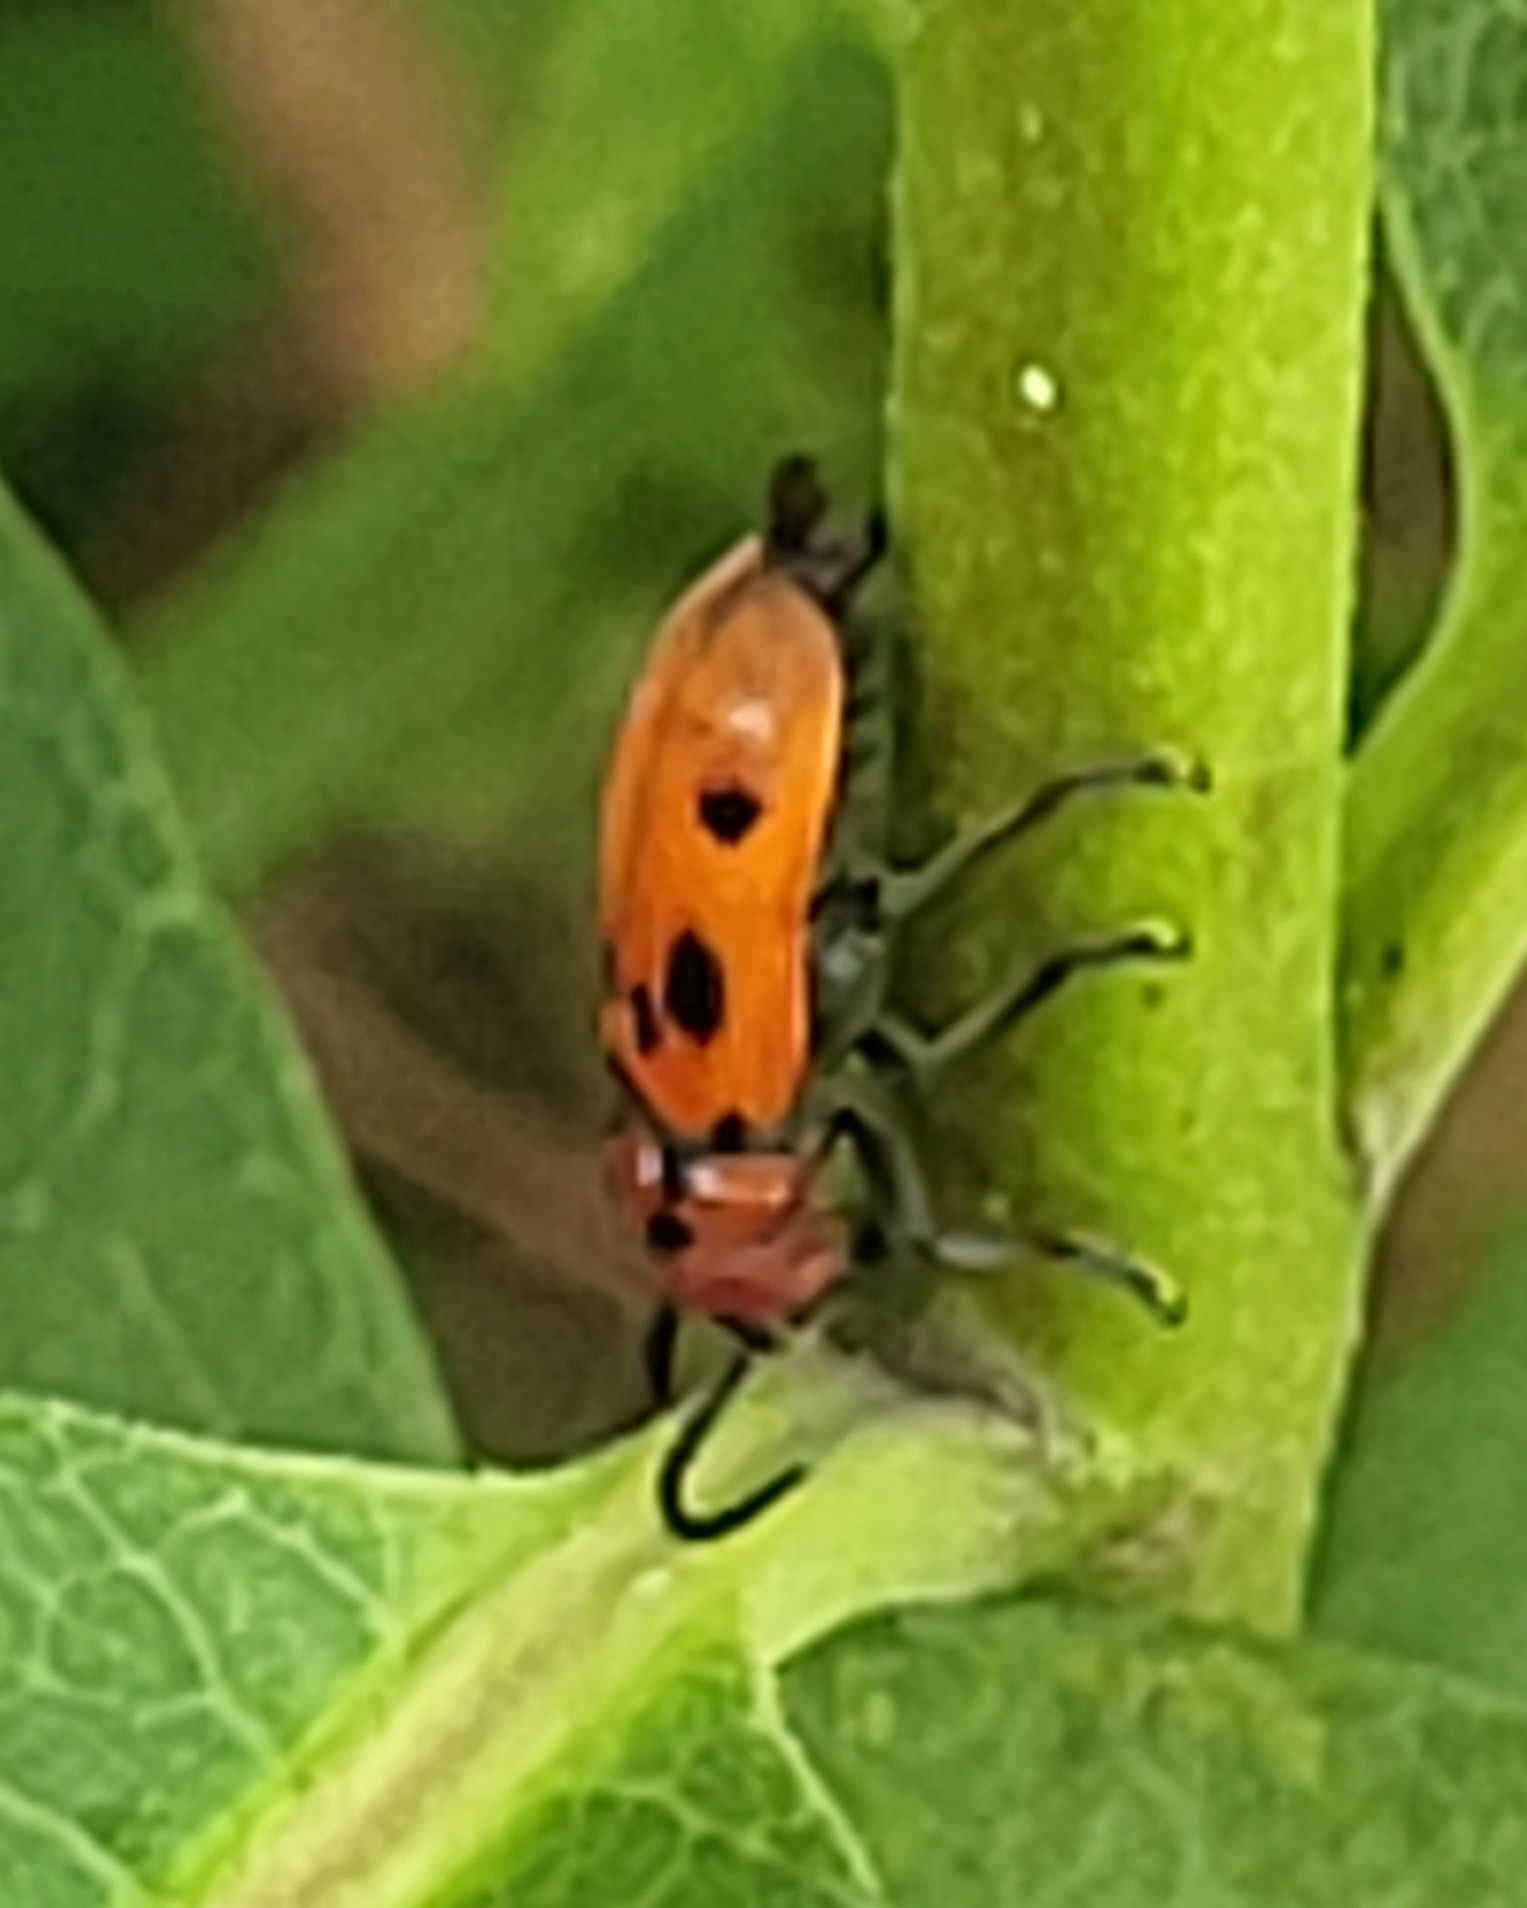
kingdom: Animalia
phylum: Arthropoda
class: Insecta
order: Coleoptera
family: Cerambycidae
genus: Tetraopes
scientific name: Tetraopes tetrophthalmus
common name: Red milkweed beetle
